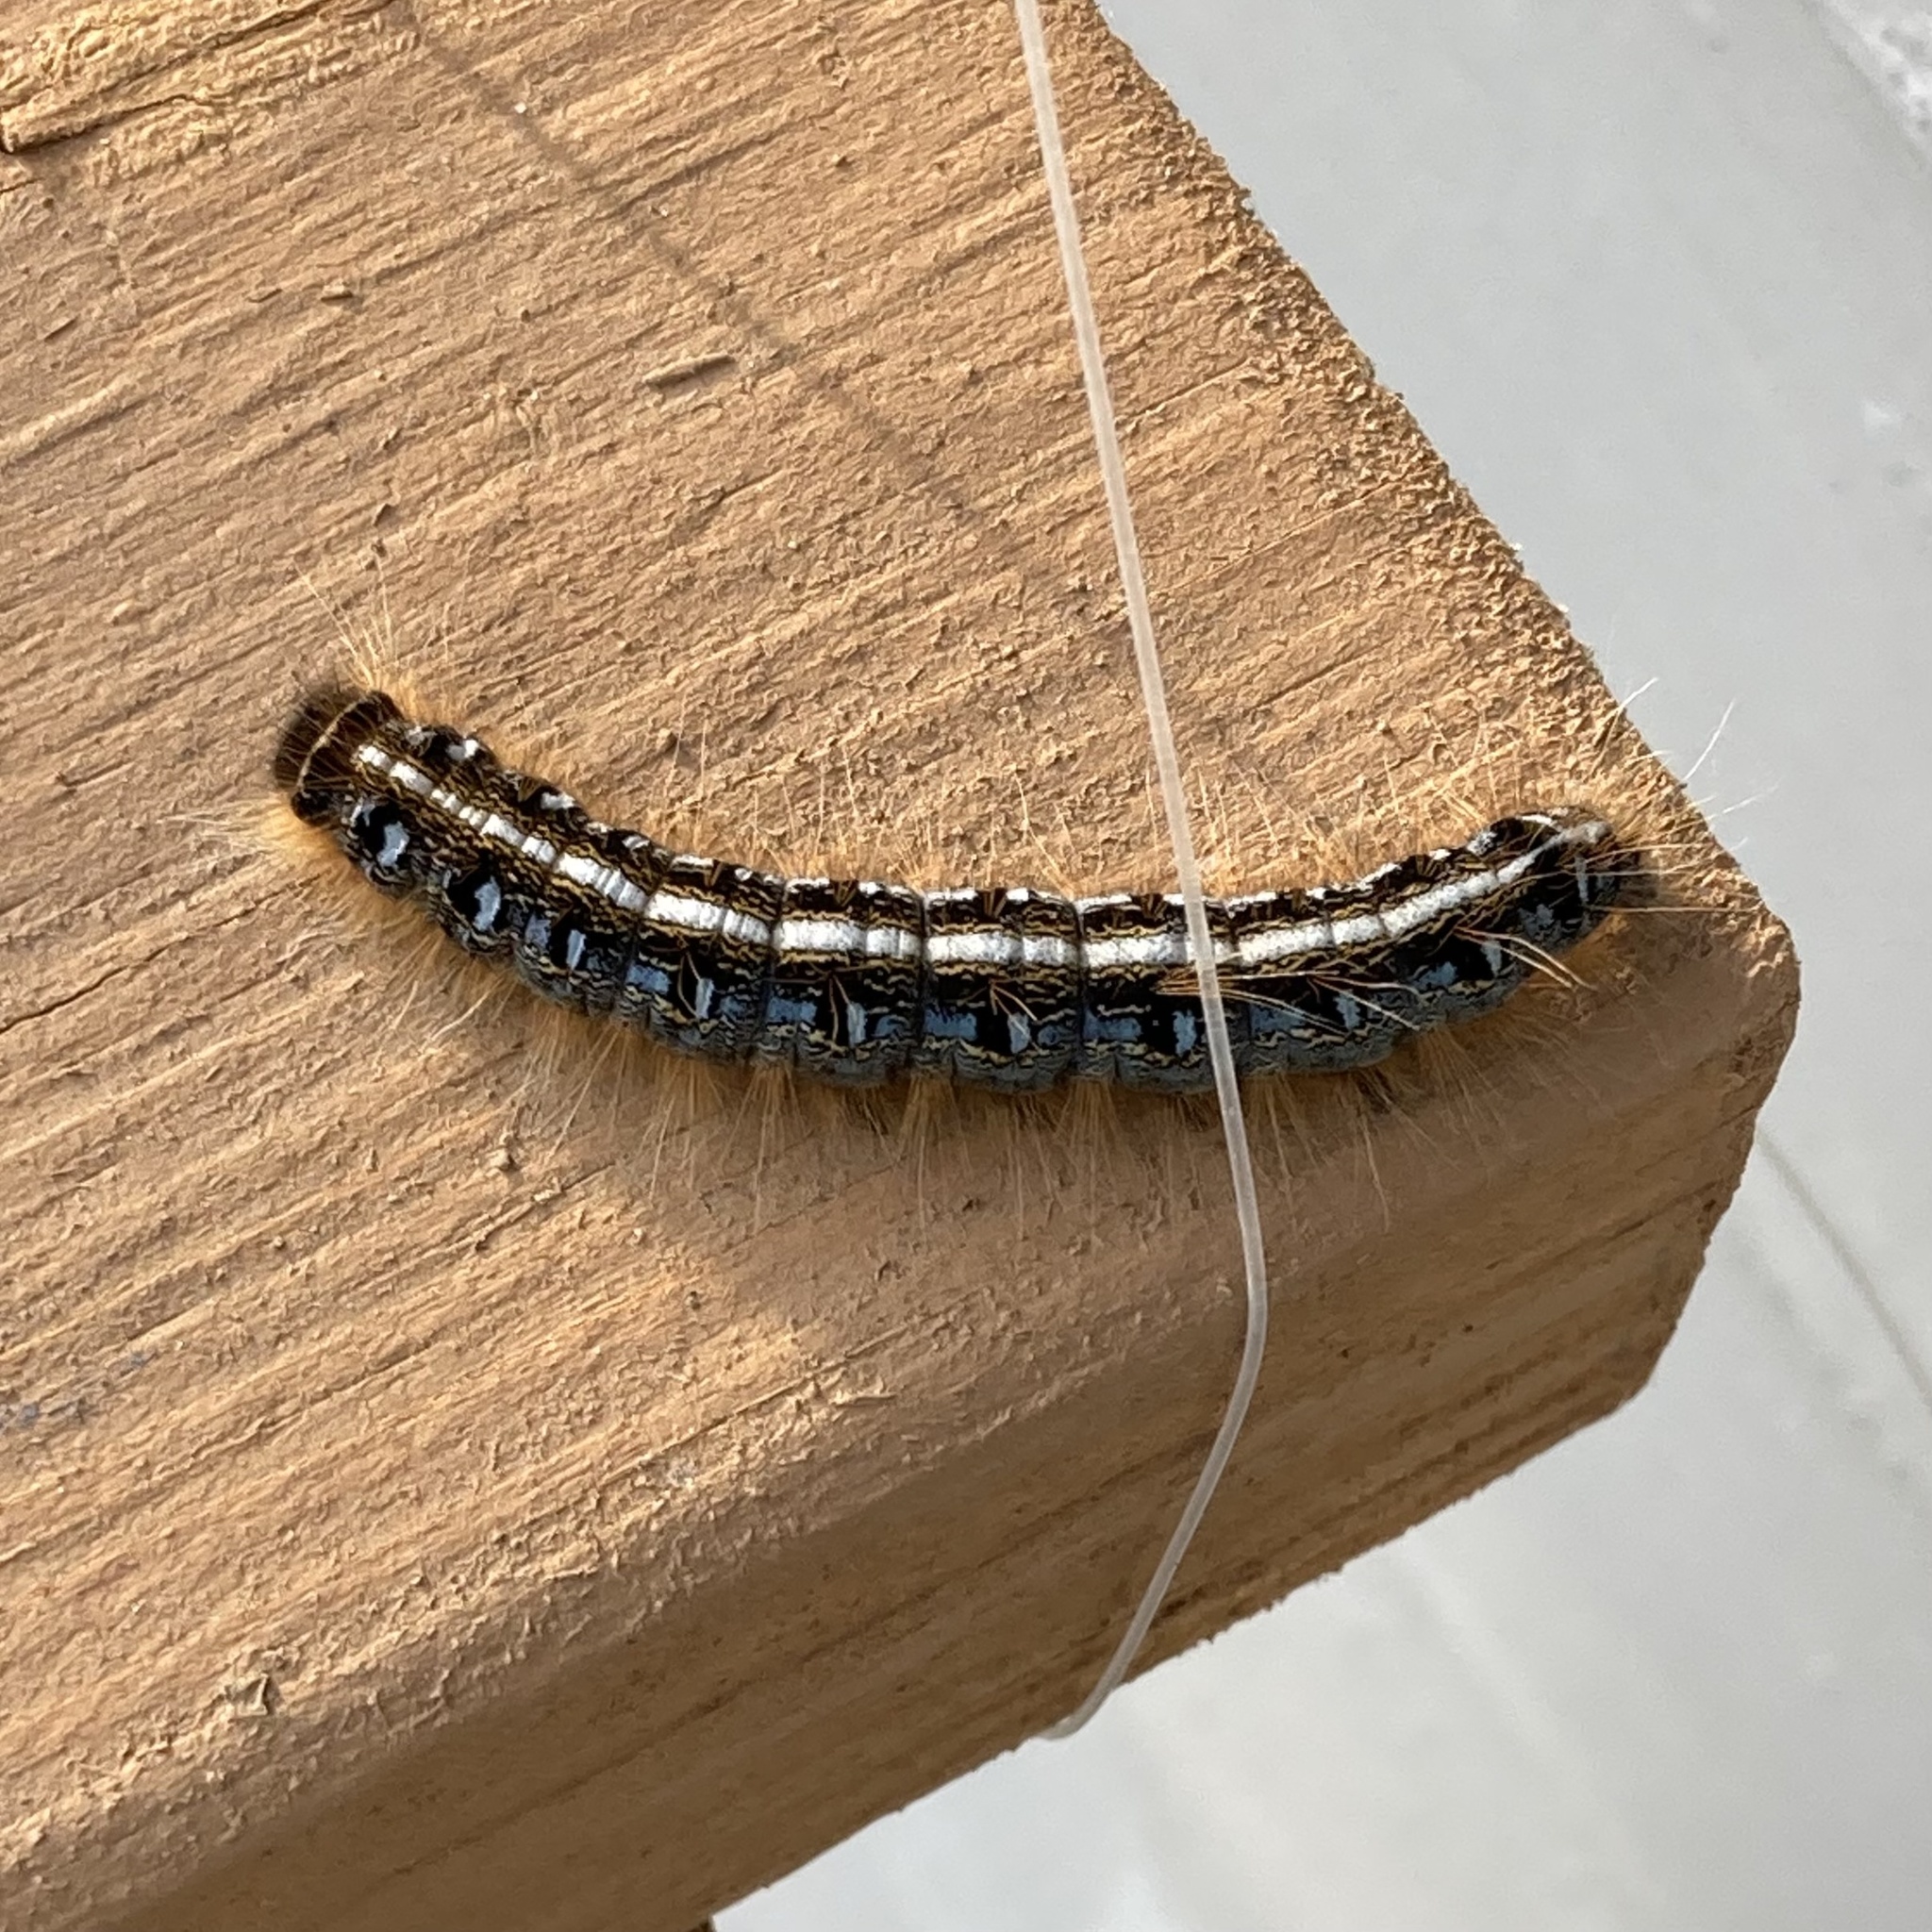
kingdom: Animalia
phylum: Arthropoda
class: Insecta
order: Lepidoptera
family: Lasiocampidae
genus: Malacosoma
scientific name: Malacosoma americana
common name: Eastern tent caterpillar moth
